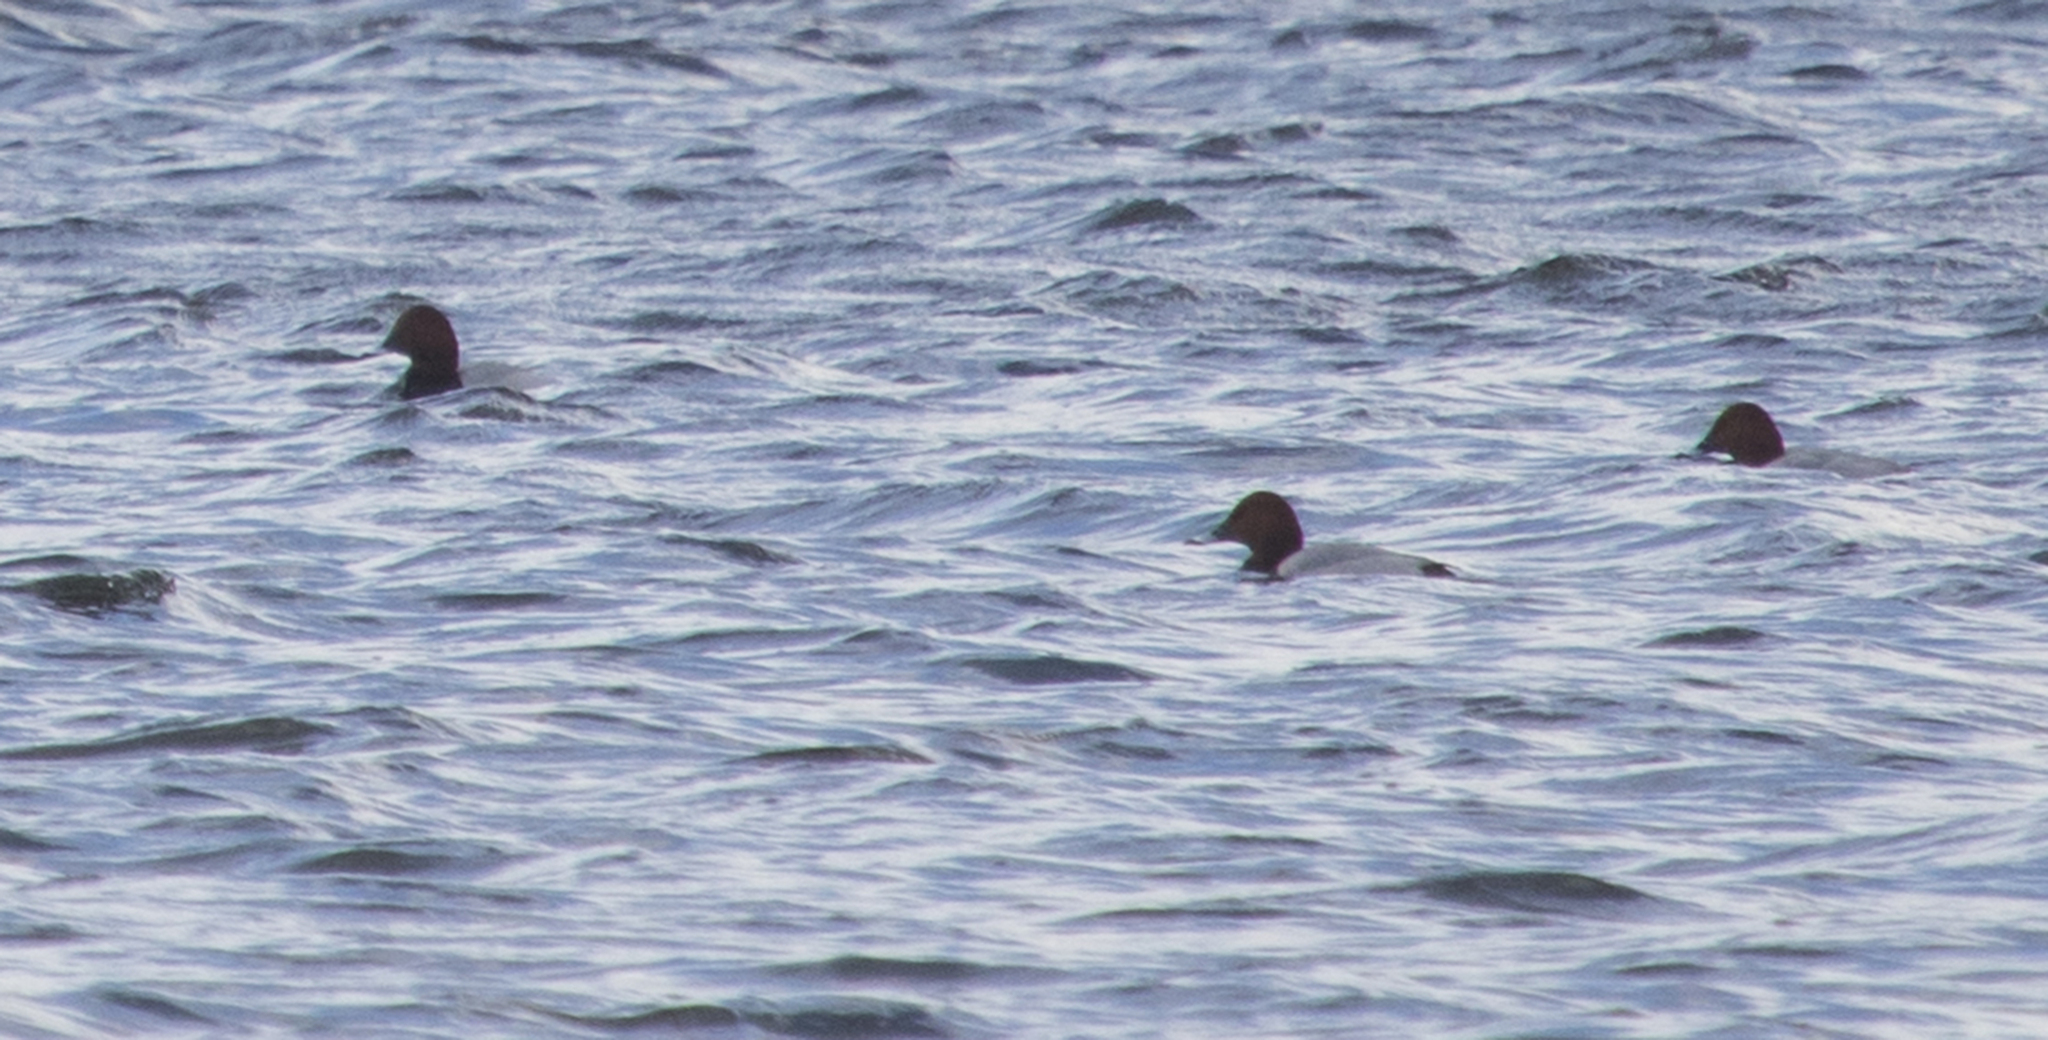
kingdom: Animalia
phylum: Chordata
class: Aves
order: Anseriformes
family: Anatidae
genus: Aythya
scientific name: Aythya ferina
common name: Common pochard
